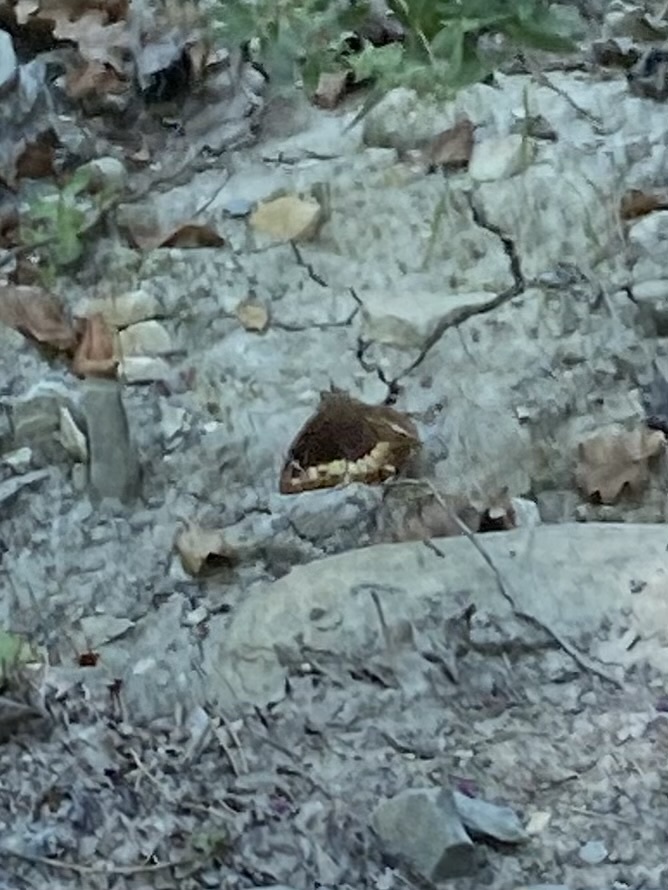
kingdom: Animalia
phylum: Arthropoda
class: Insecta
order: Lepidoptera
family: Nymphalidae
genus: Hipparchia
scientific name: Hipparchia fagi
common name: Woodland grayling
